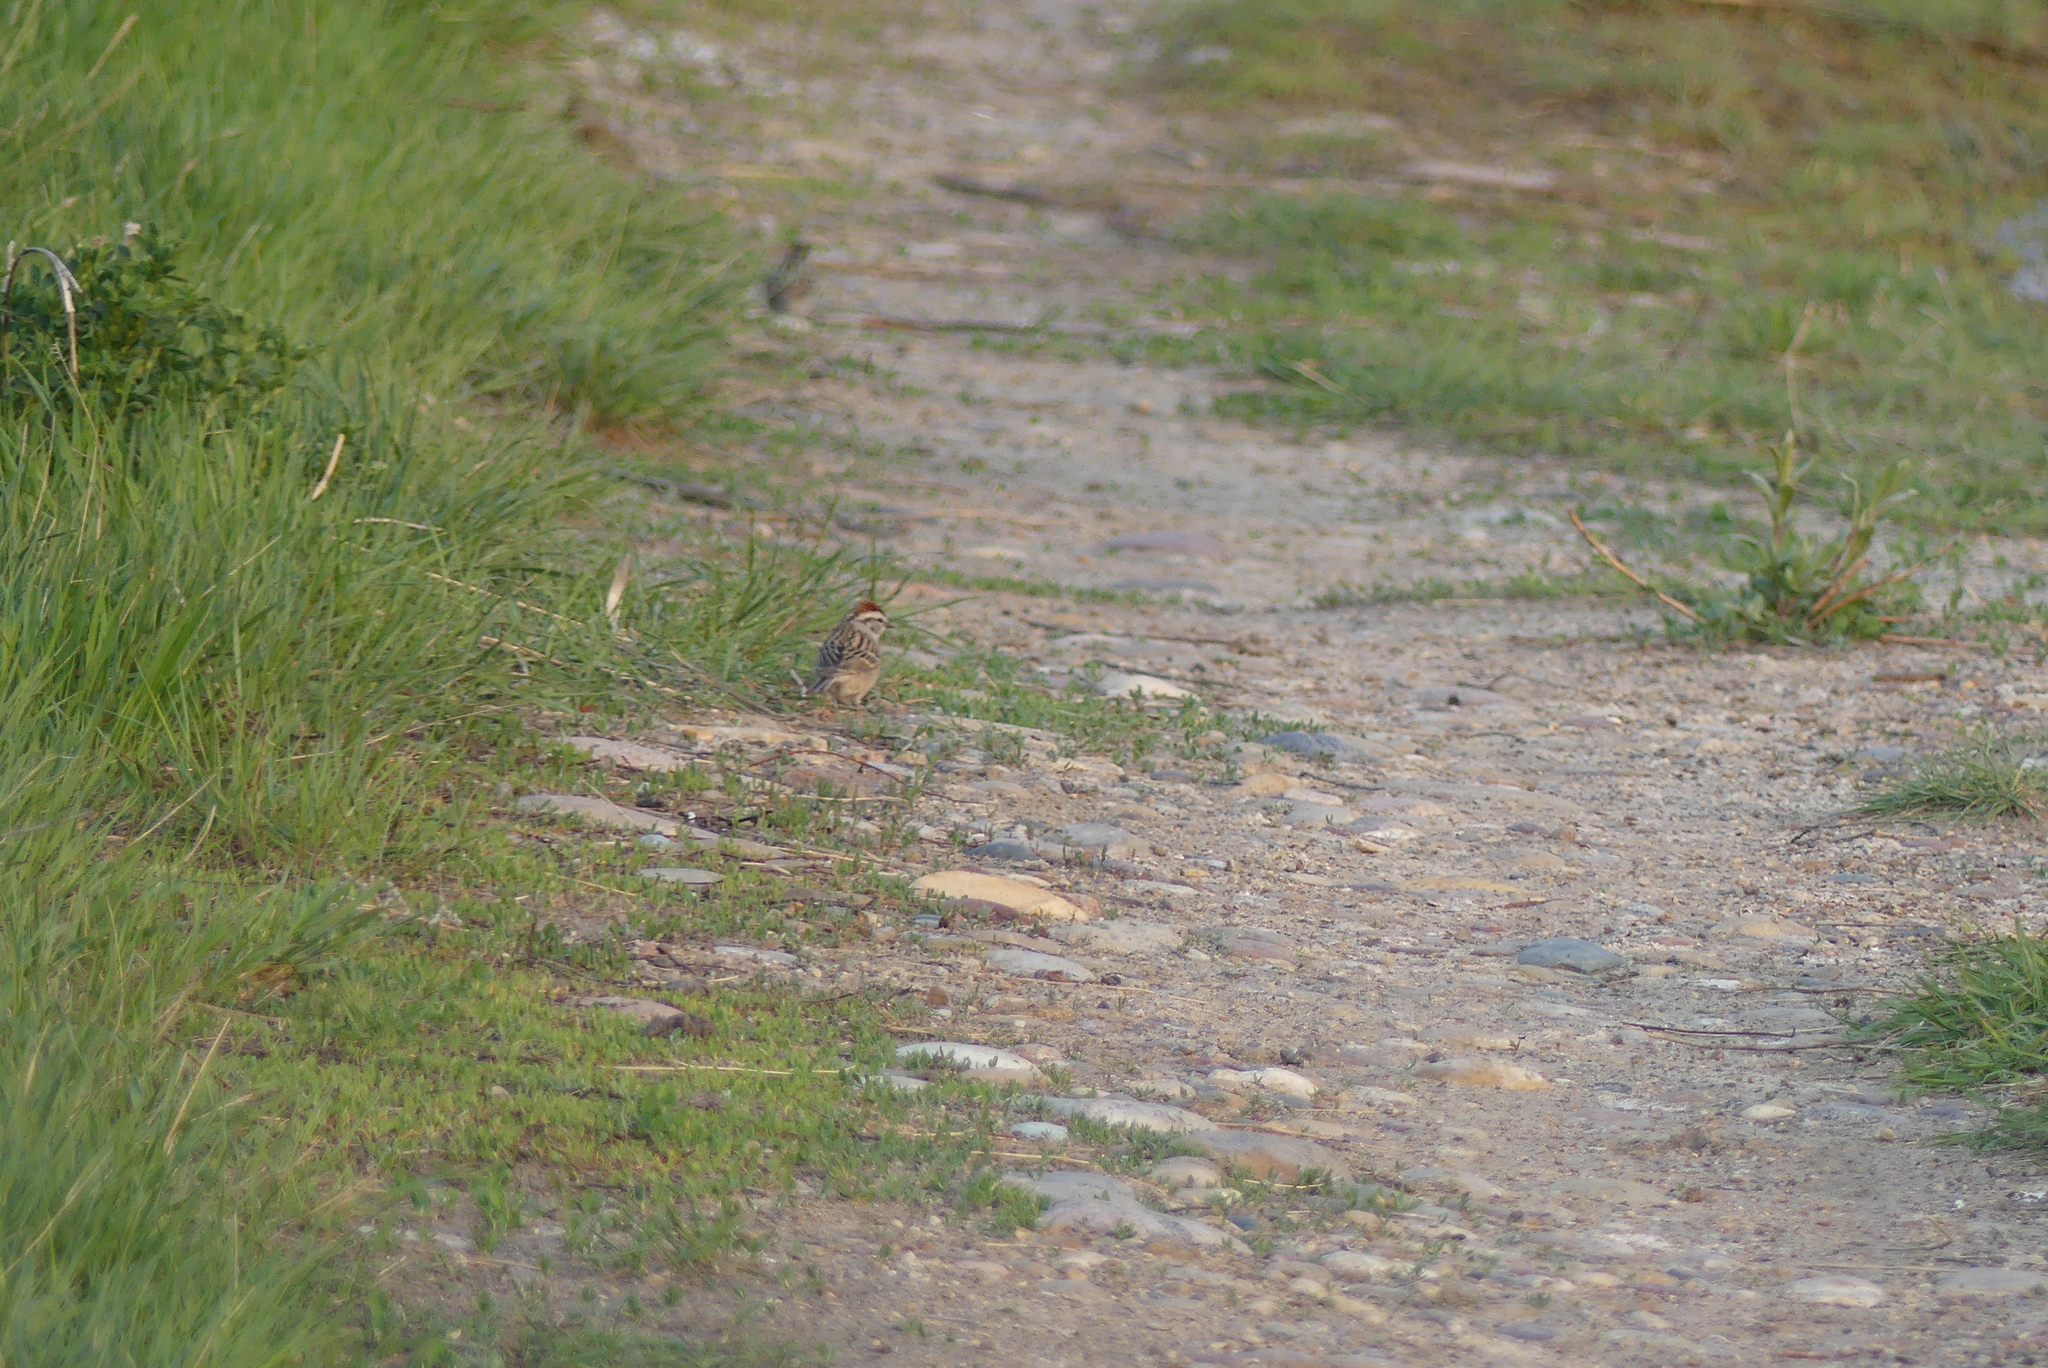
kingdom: Animalia
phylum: Chordata
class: Aves
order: Passeriformes
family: Passerellidae
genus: Spizella
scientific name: Spizella passerina
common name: Chipping sparrow
